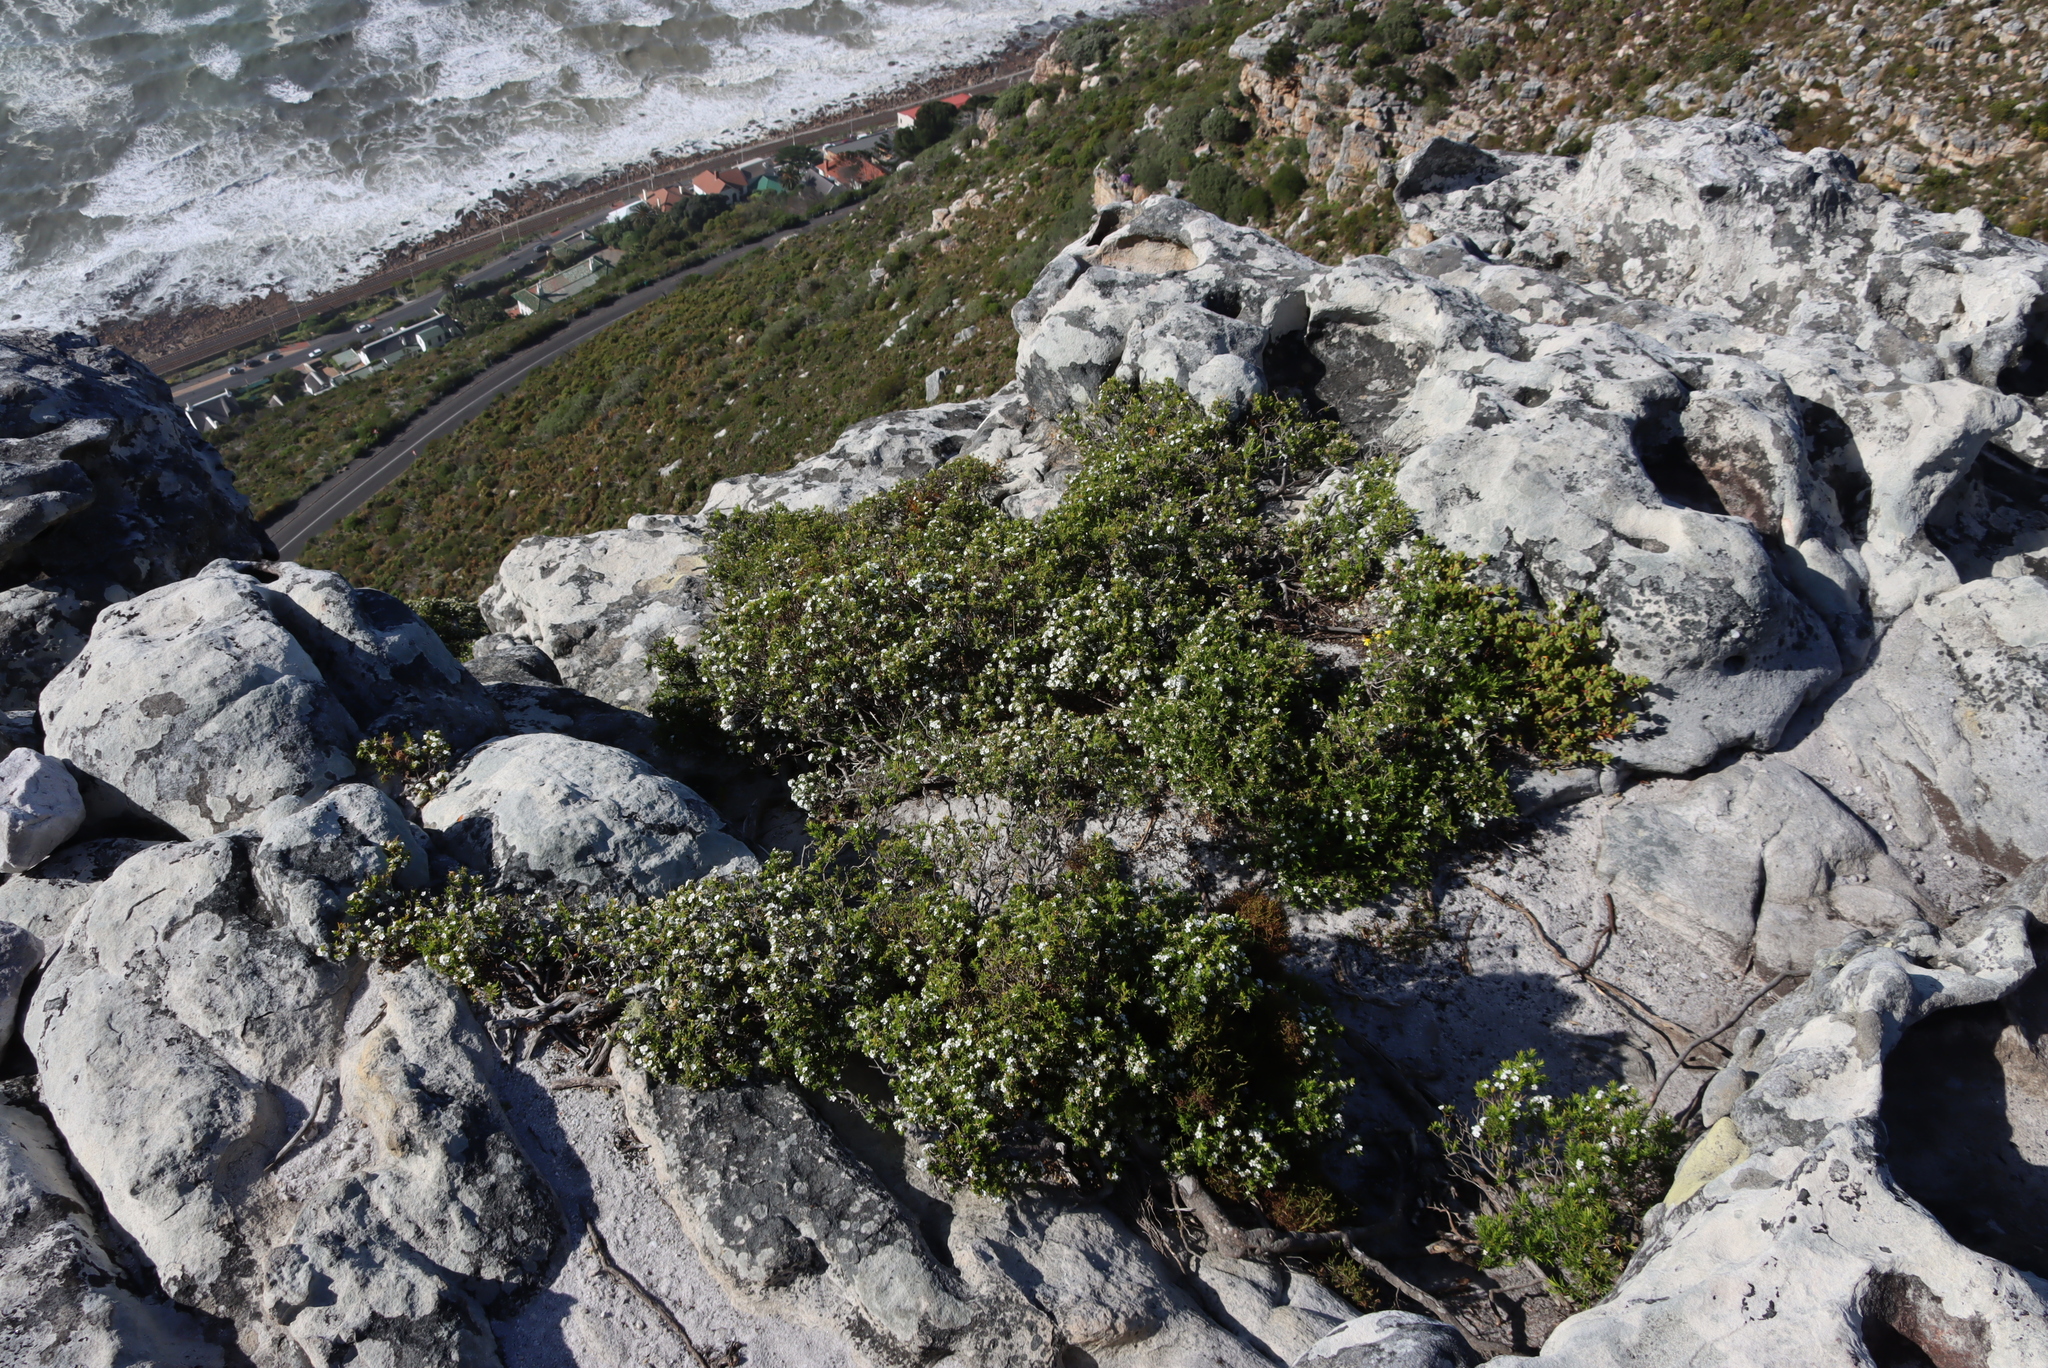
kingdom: Plantae
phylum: Tracheophyta
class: Magnoliopsida
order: Sapindales
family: Rutaceae
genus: Coleonema
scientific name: Coleonema album
